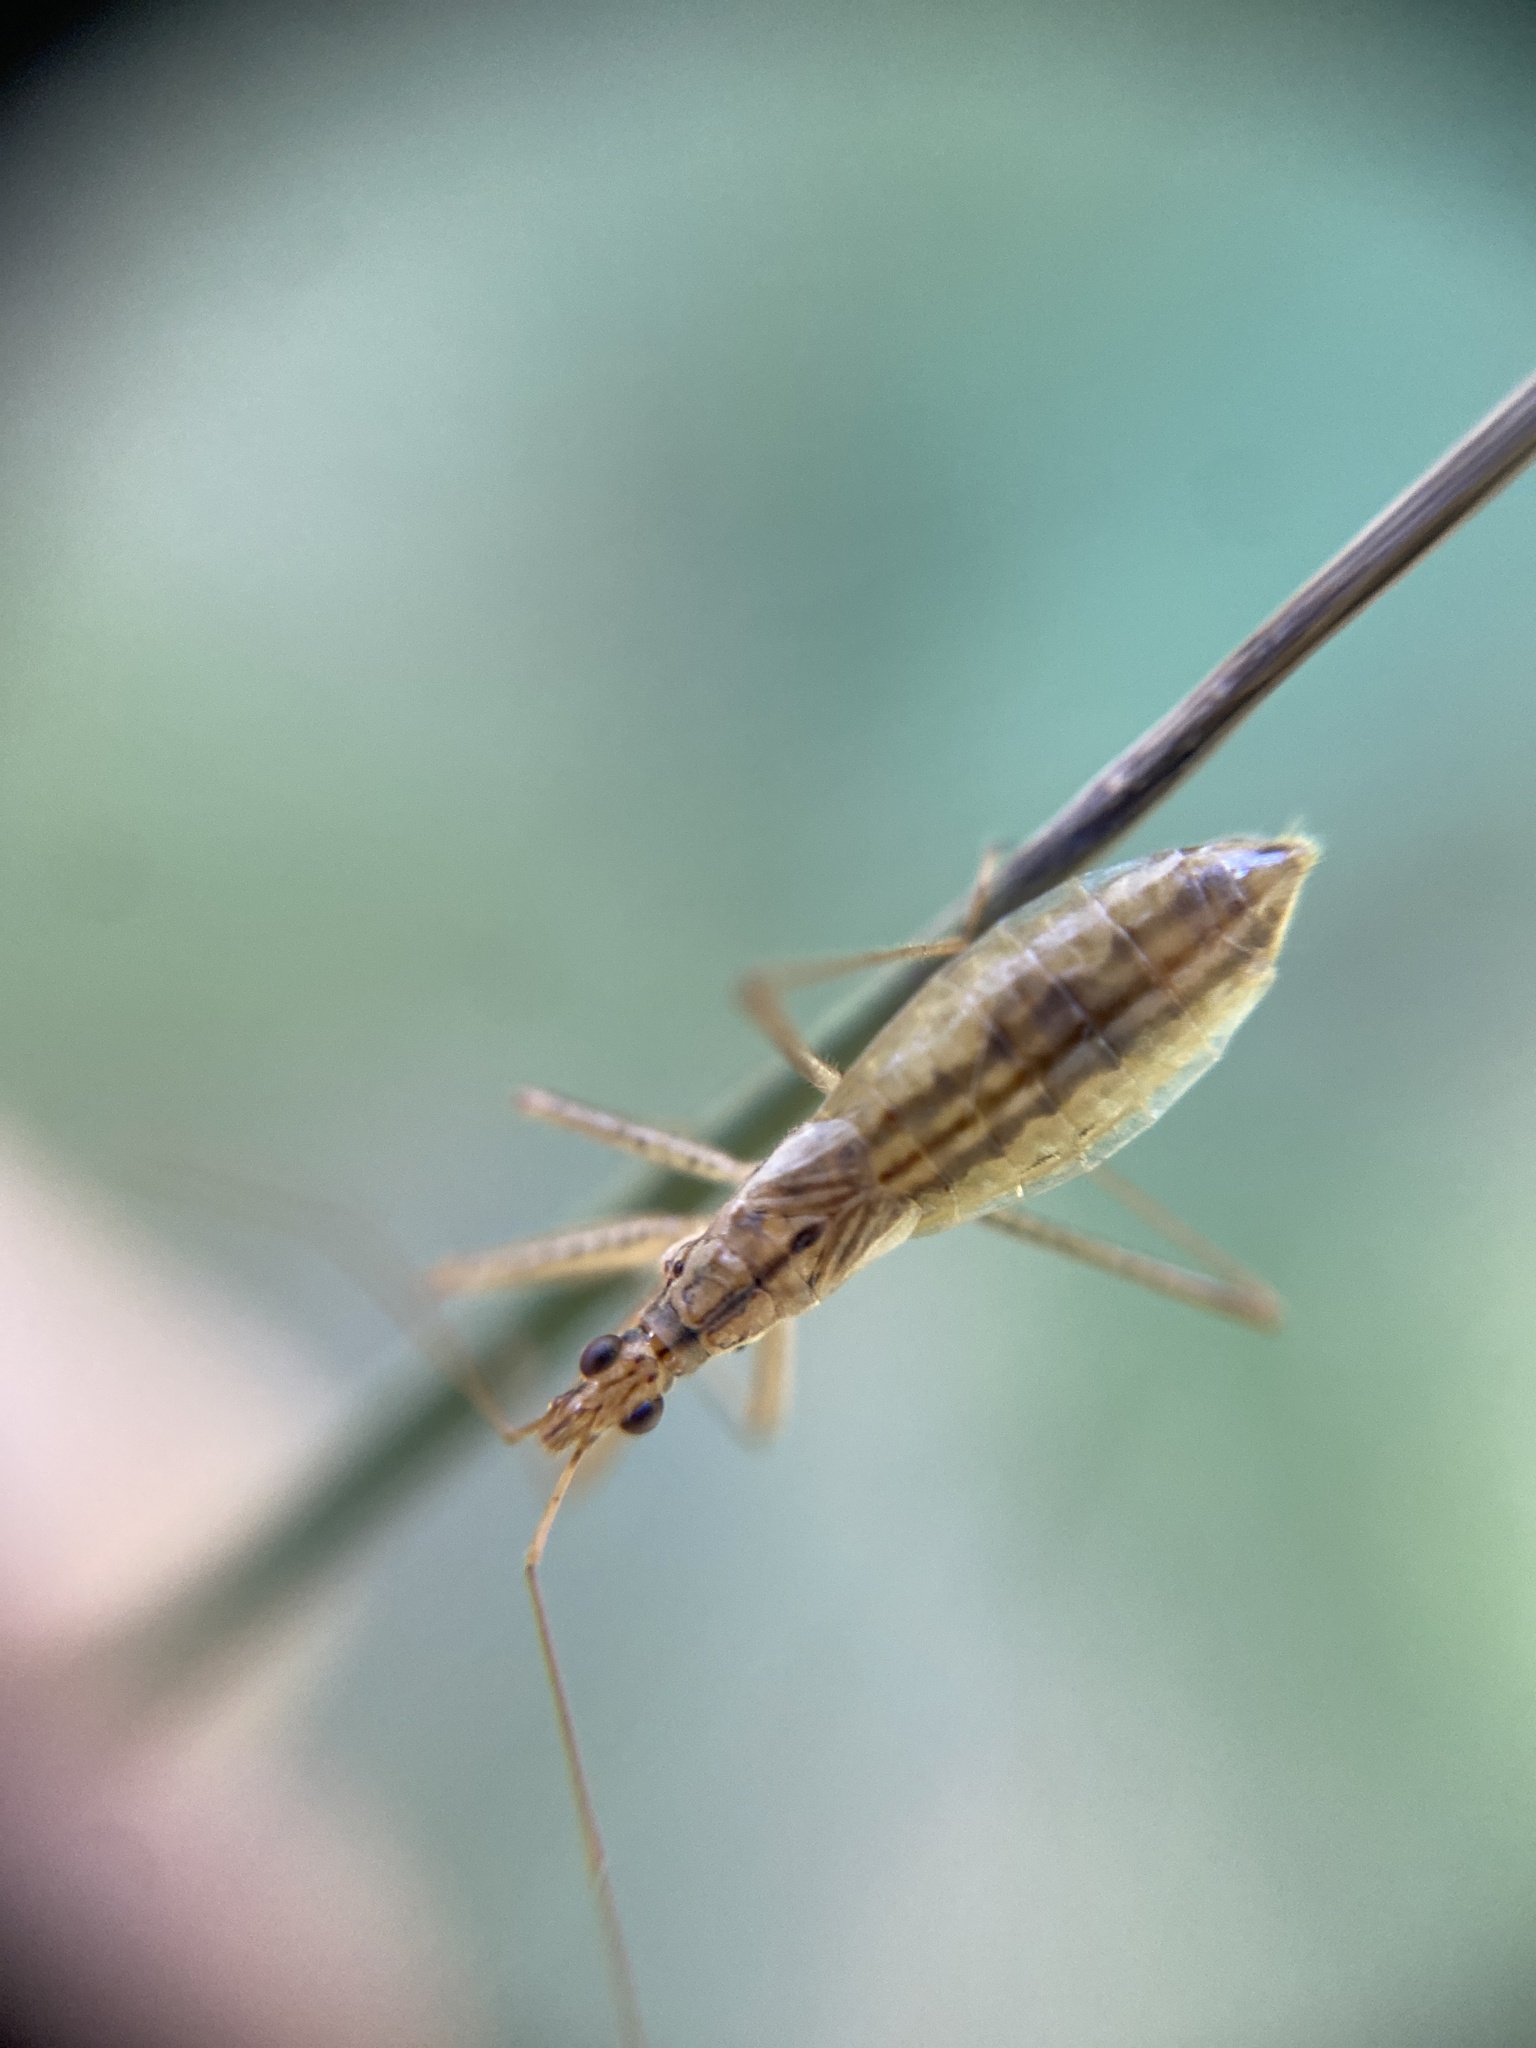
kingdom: Animalia
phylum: Arthropoda
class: Insecta
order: Hemiptera
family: Nabidae
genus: Nabis
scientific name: Nabis limbatus
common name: Marsh damselbug
